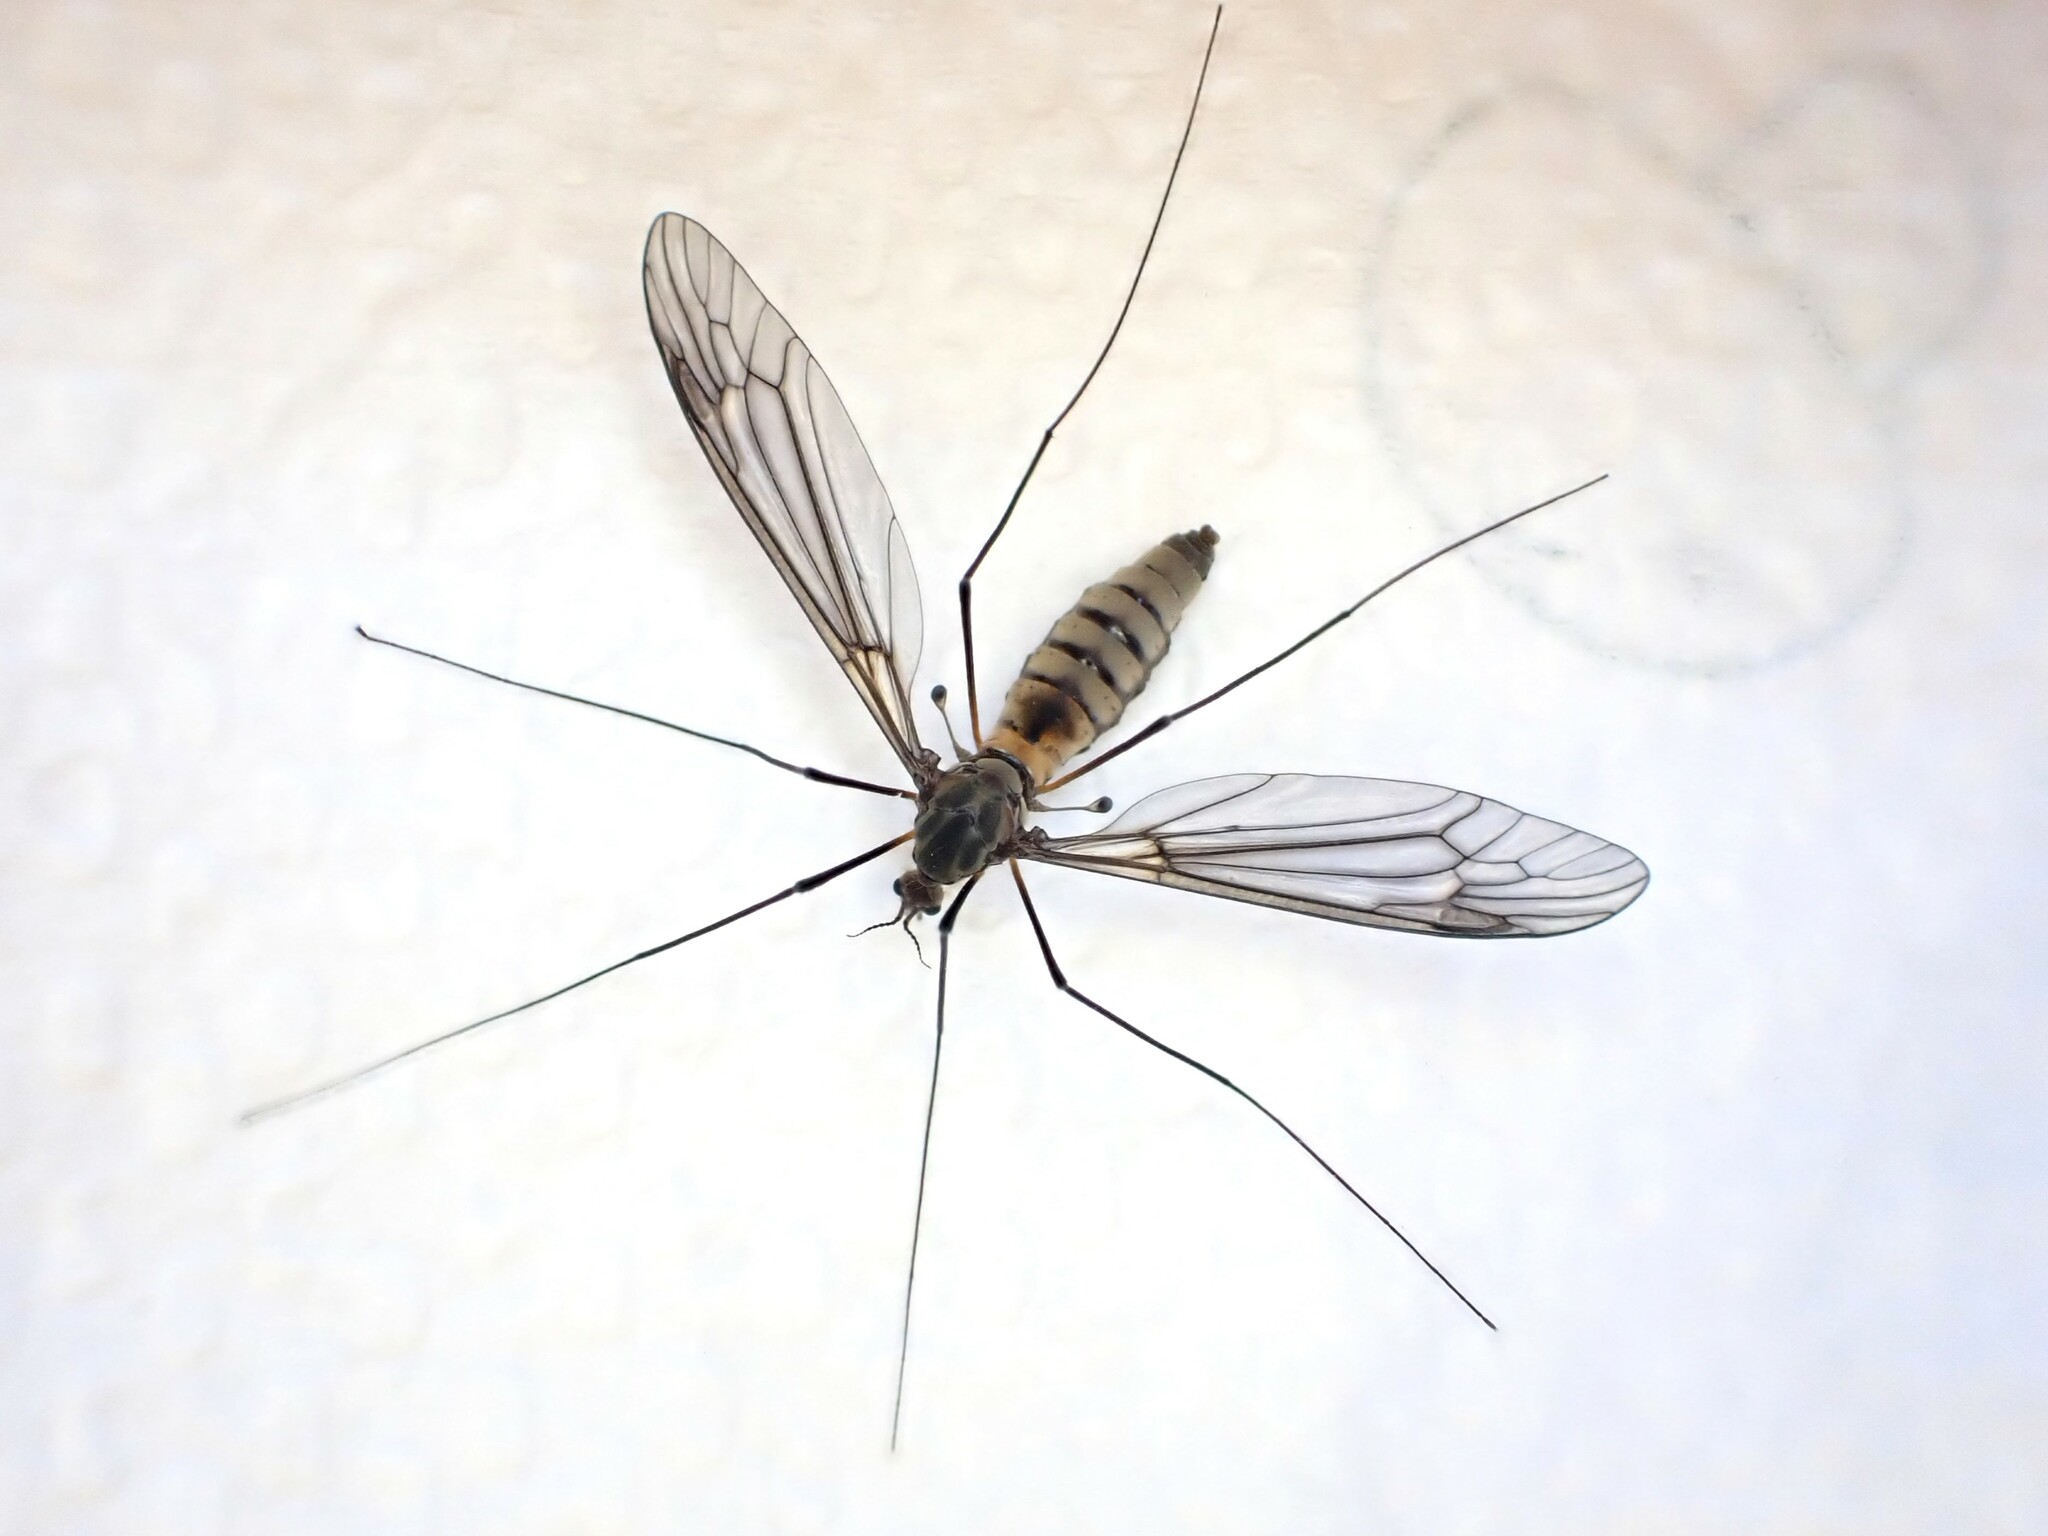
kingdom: Animalia
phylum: Arthropoda
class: Insecta
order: Diptera
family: Tipulidae
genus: Leptotarsus
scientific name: Leptotarsus rufibasis
